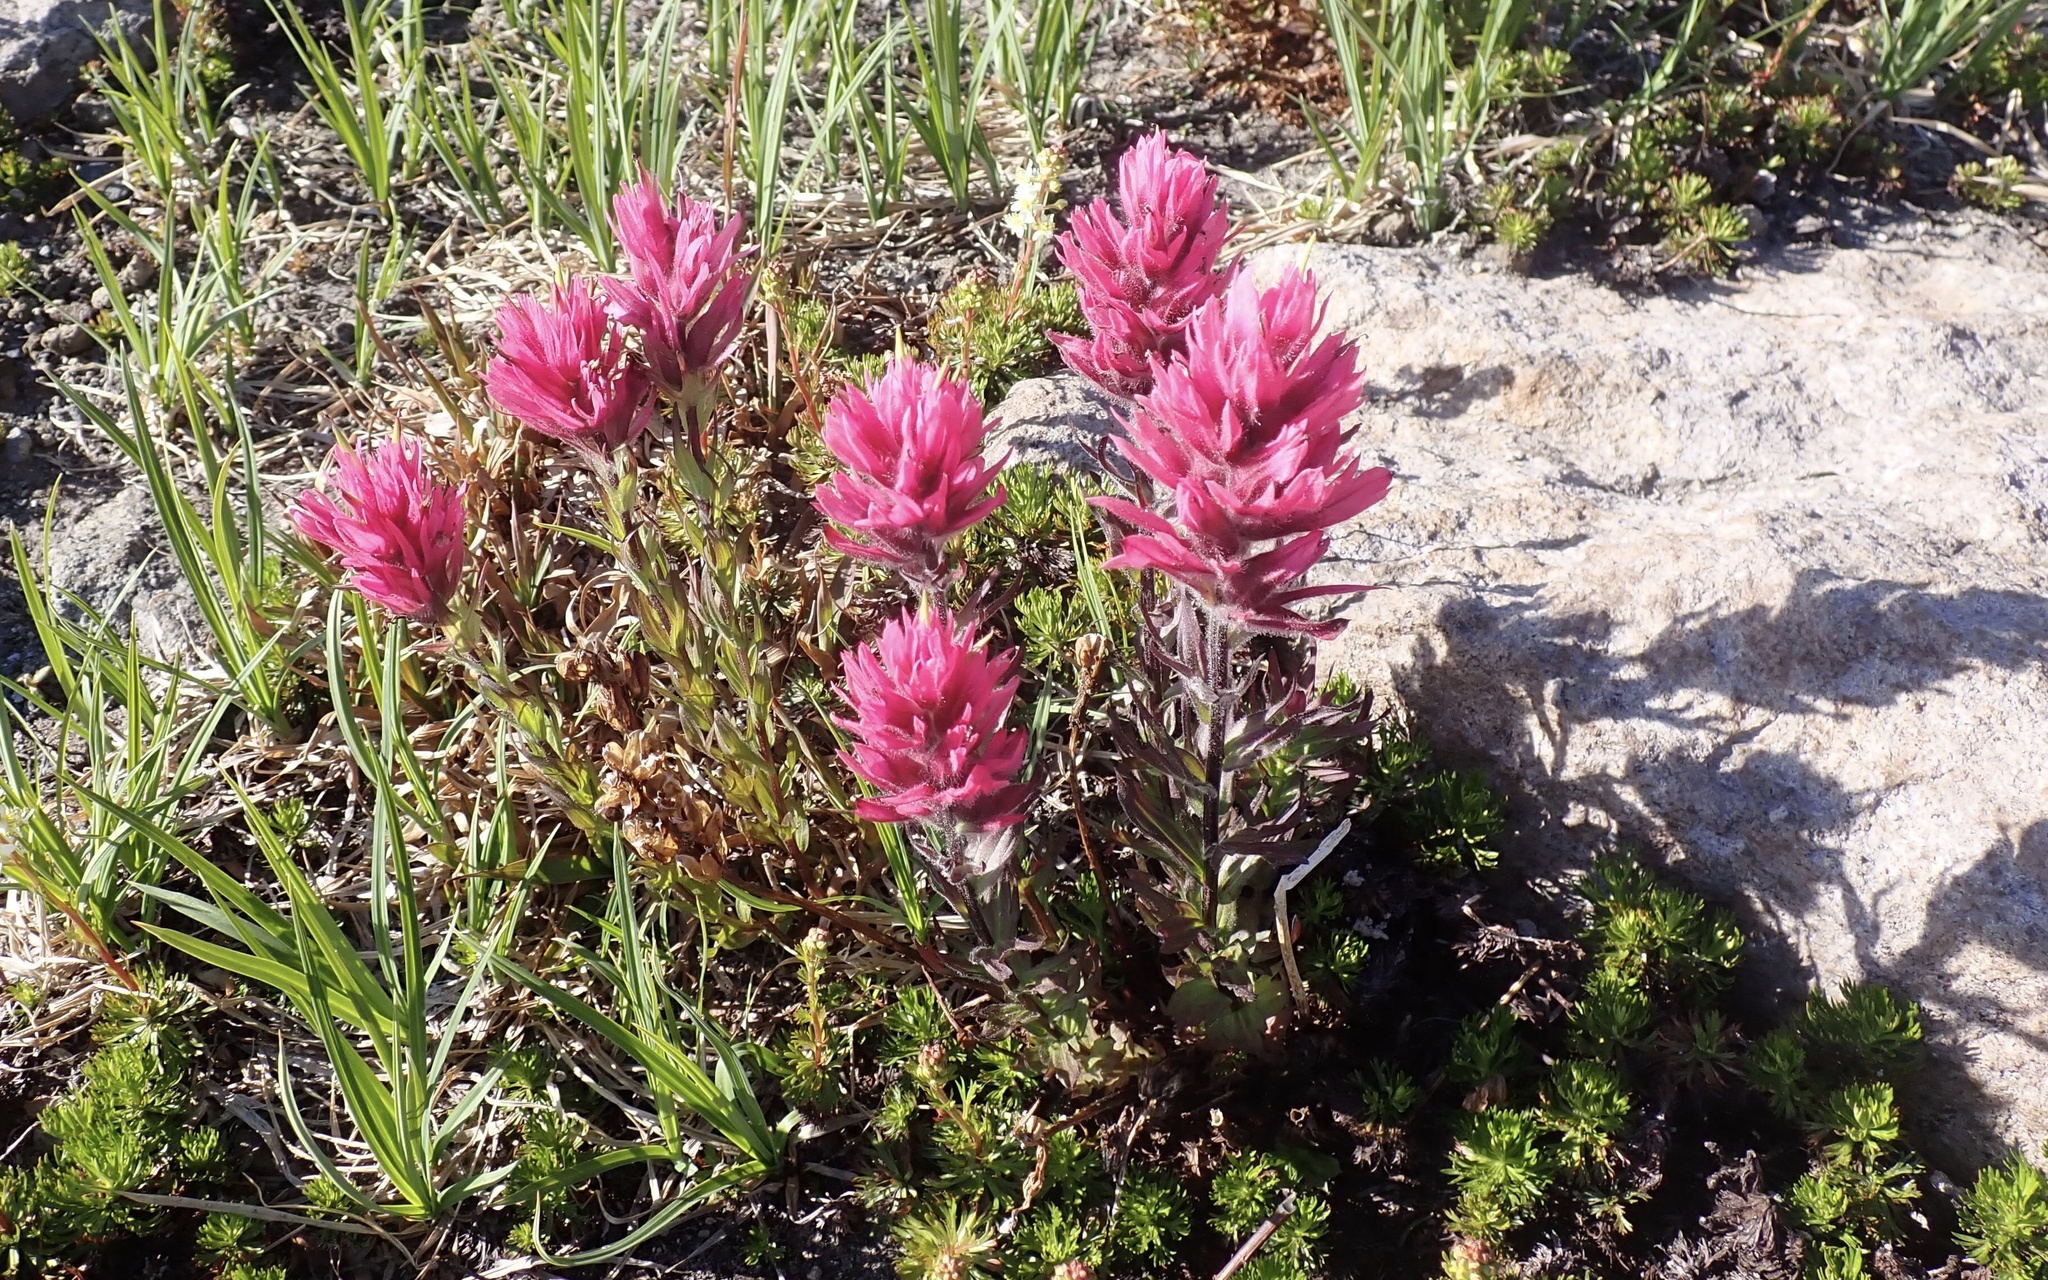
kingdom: Plantae
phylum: Tracheophyta
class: Magnoliopsida
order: Lamiales
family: Orobanchaceae
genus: Castilleja
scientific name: Castilleja parviflora
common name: Mountain paintbrush
